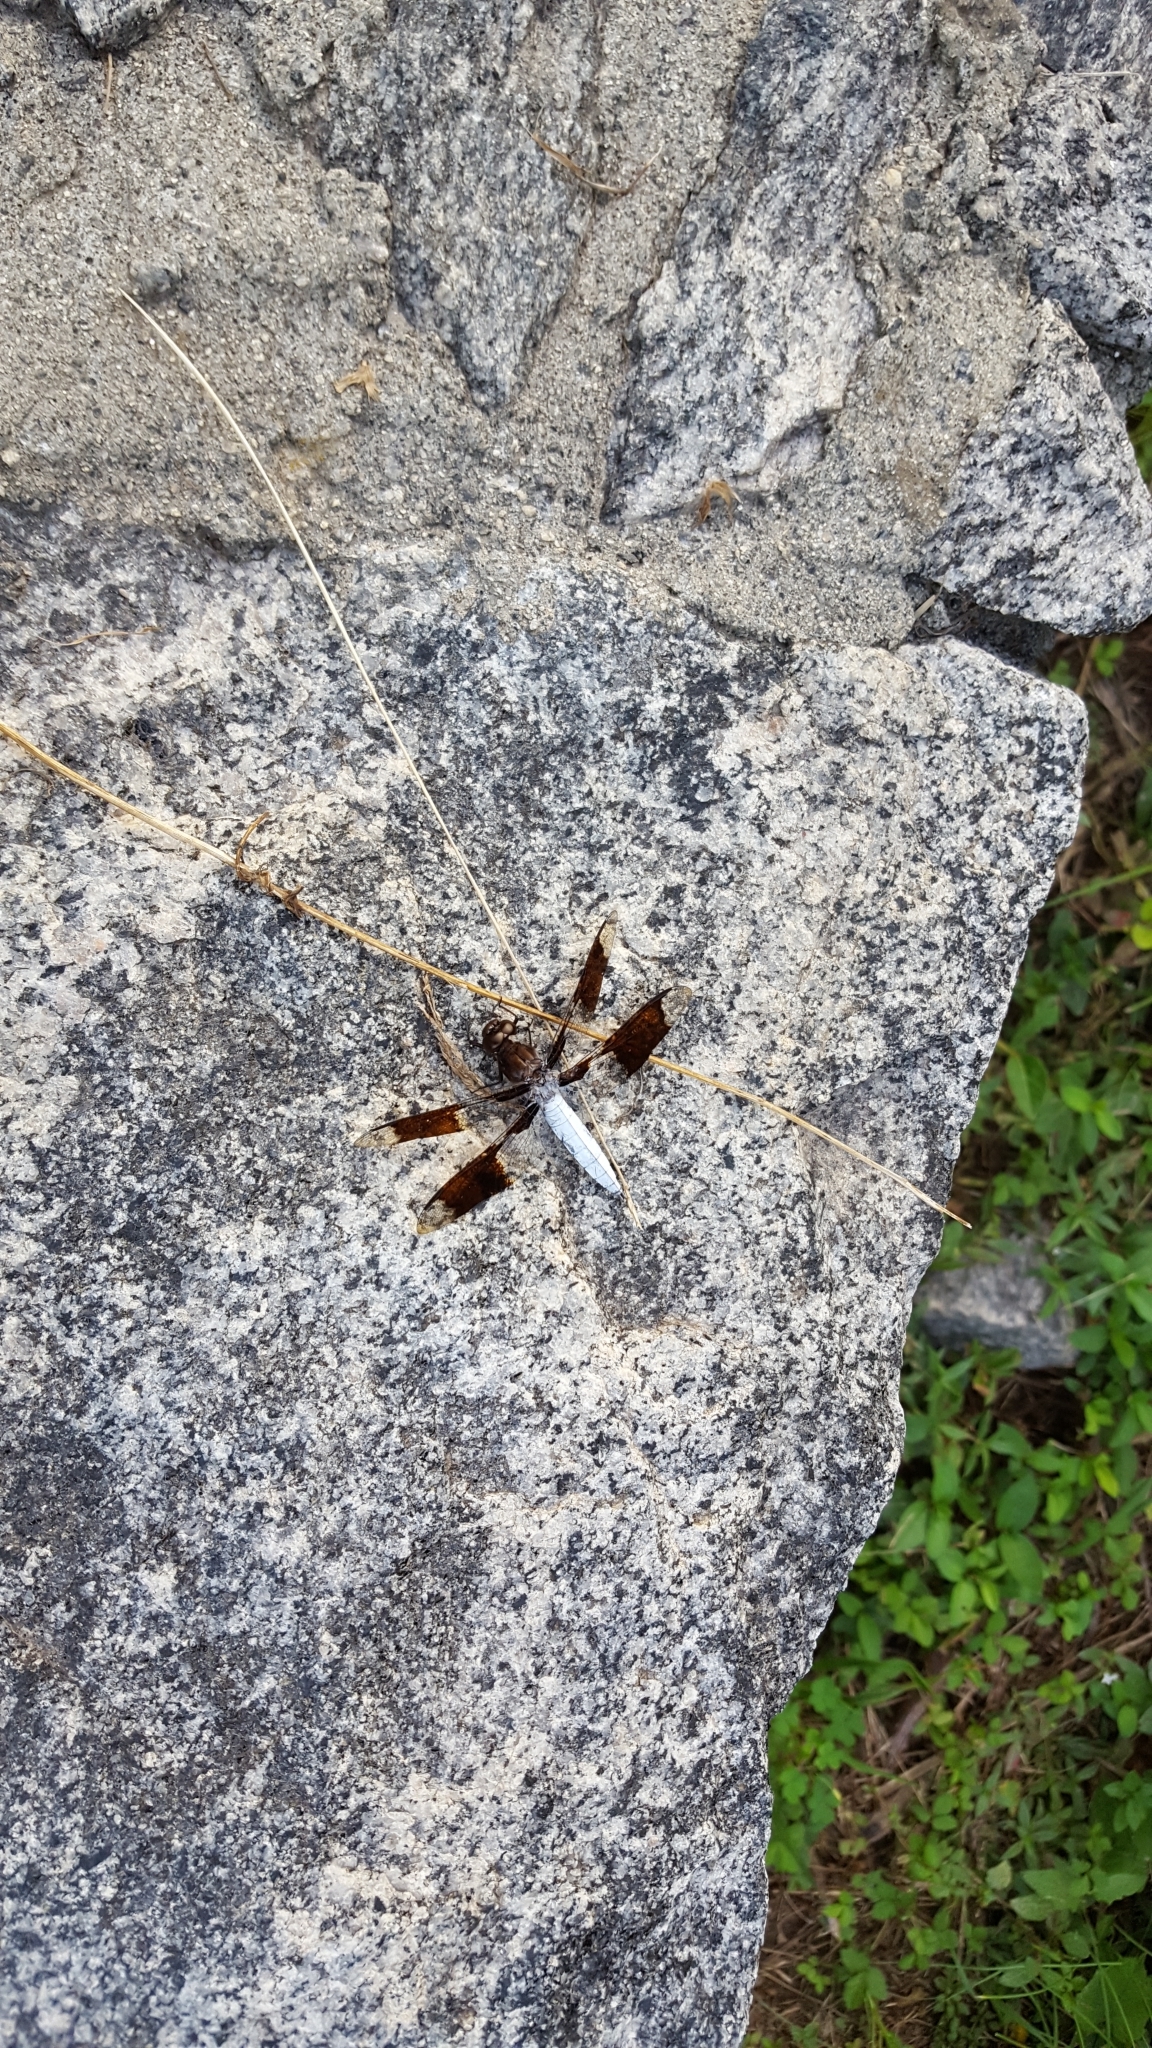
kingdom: Animalia
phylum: Arthropoda
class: Insecta
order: Odonata
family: Libellulidae
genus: Plathemis
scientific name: Plathemis lydia
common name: Common whitetail
